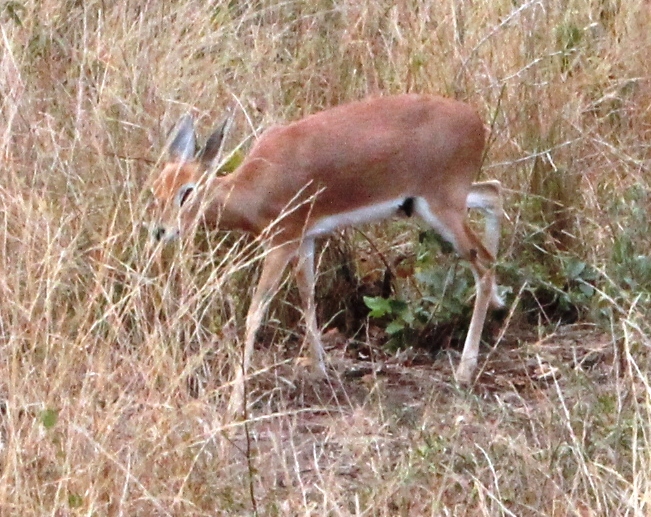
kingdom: Animalia
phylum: Chordata
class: Mammalia
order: Artiodactyla
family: Bovidae
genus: Raphicerus
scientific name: Raphicerus campestris
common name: Steenbok
